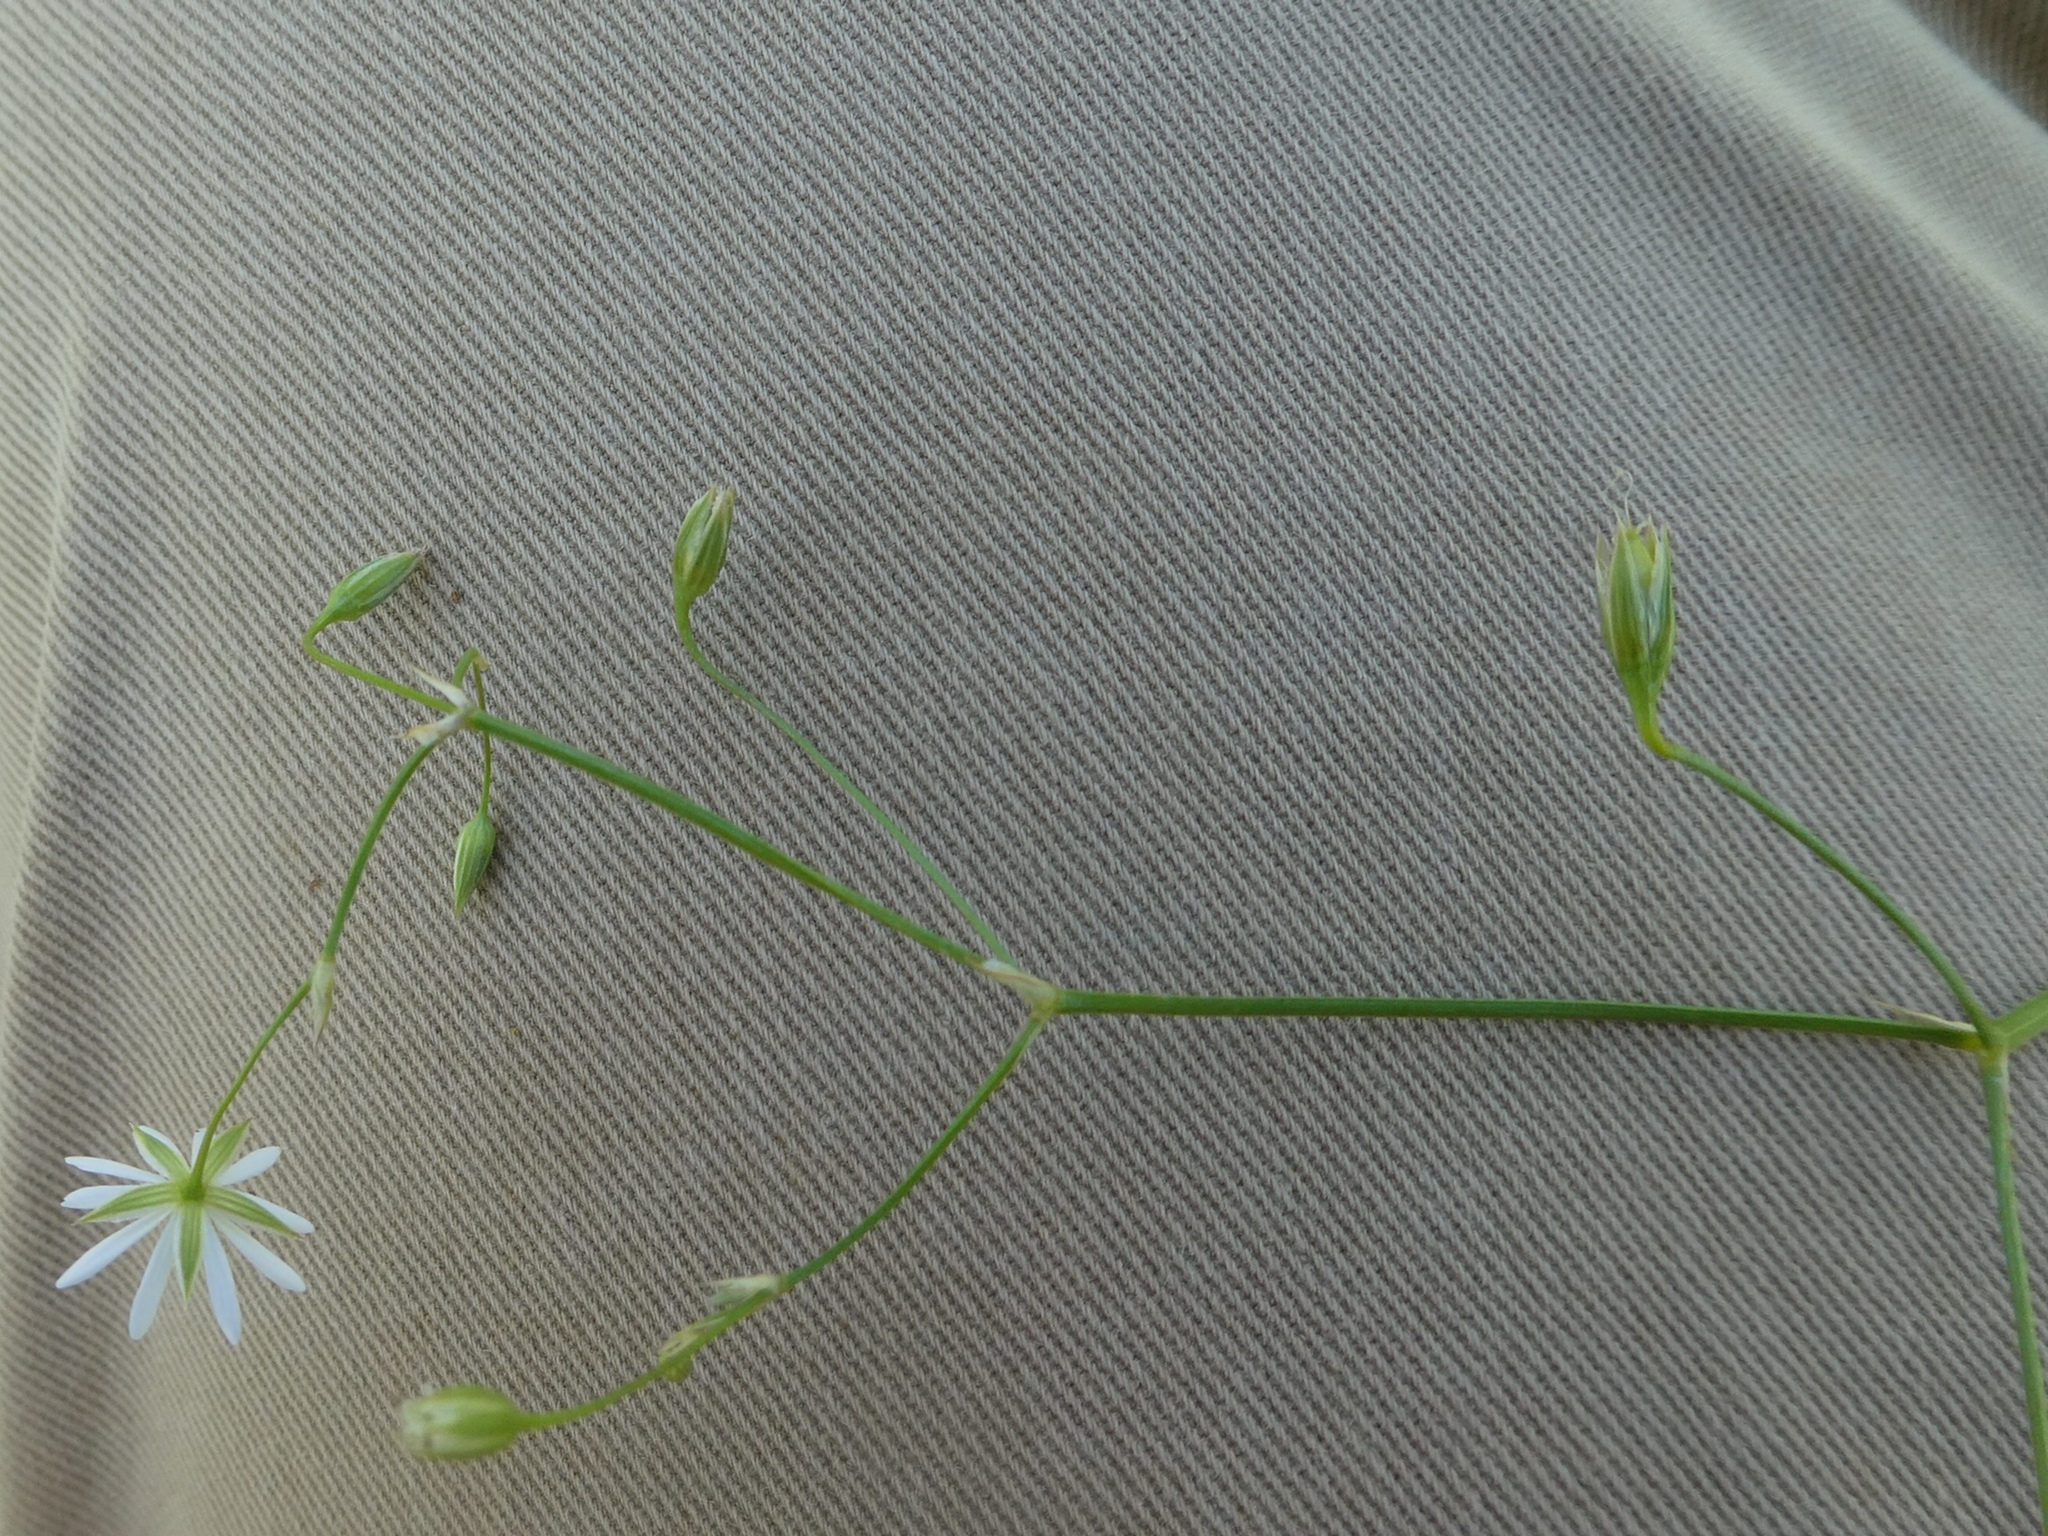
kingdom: Plantae
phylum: Tracheophyta
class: Magnoliopsida
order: Caryophyllales
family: Caryophyllaceae
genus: Stellaria
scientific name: Stellaria graminea
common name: Grass-like starwort
